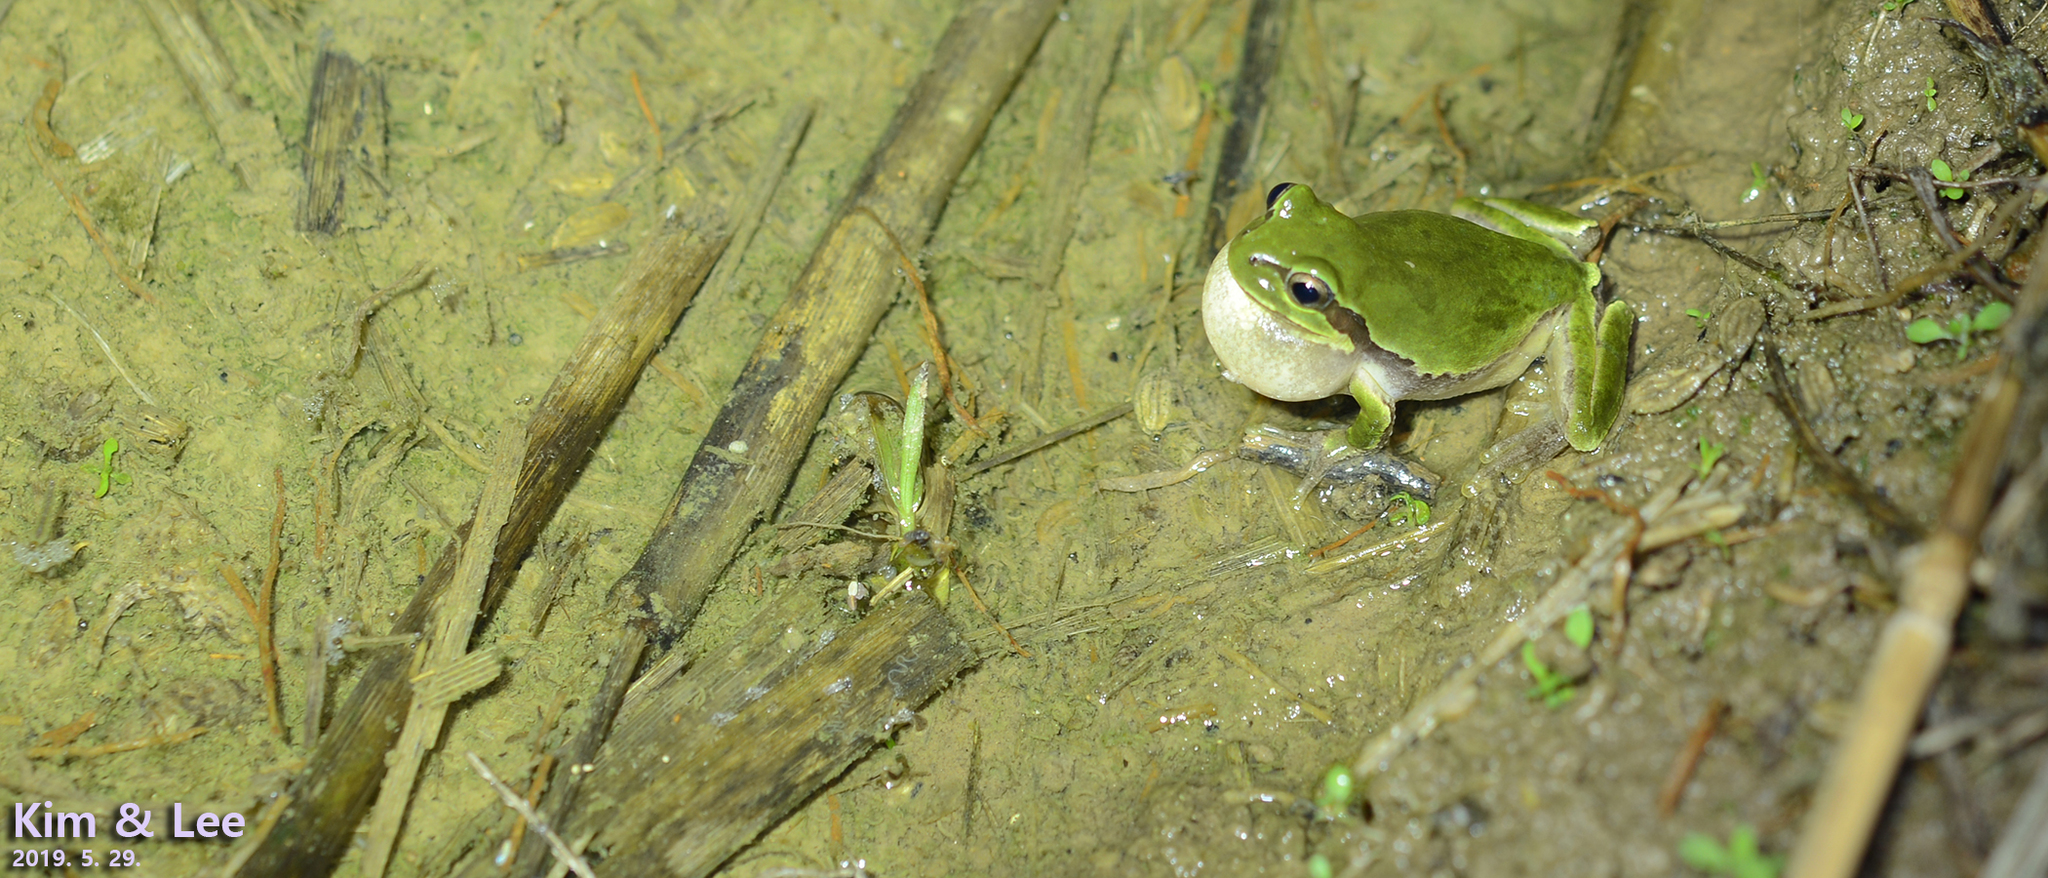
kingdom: Animalia
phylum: Chordata
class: Amphibia
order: Anura
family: Hylidae
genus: Dryophytes
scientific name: Dryophytes japonicus
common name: Japanese treefrog
